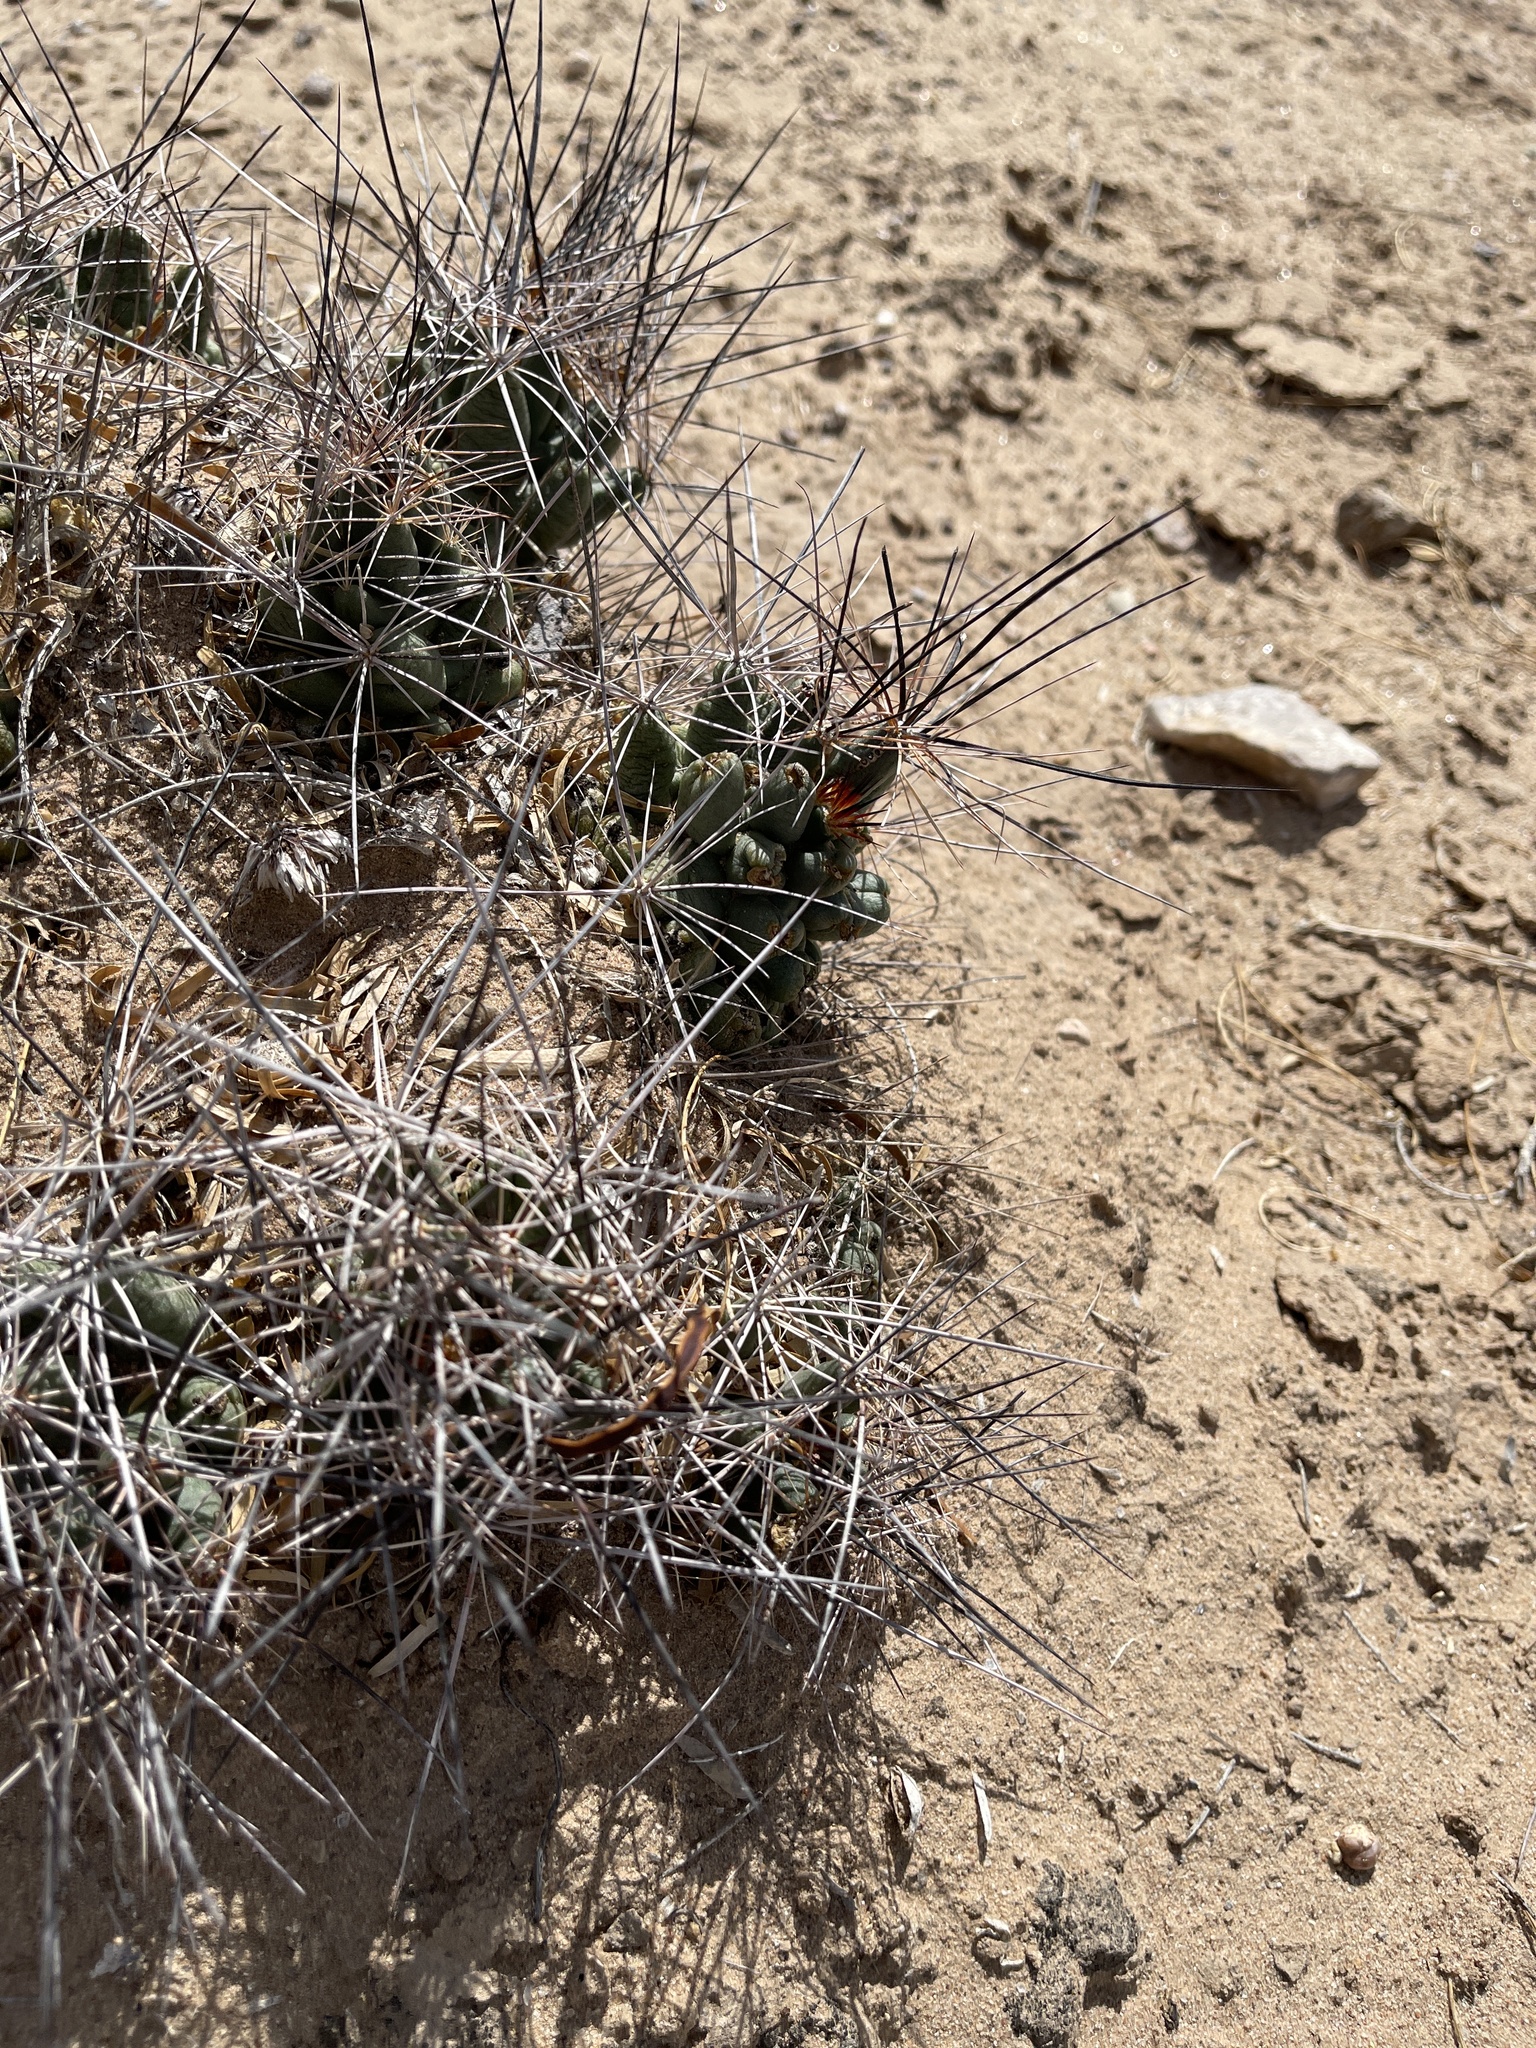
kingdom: Plantae
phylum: Tracheophyta
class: Magnoliopsida
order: Caryophyllales
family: Cactaceae
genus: Coryphantha
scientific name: Coryphantha macromeris
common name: Nipple beehive cactus
